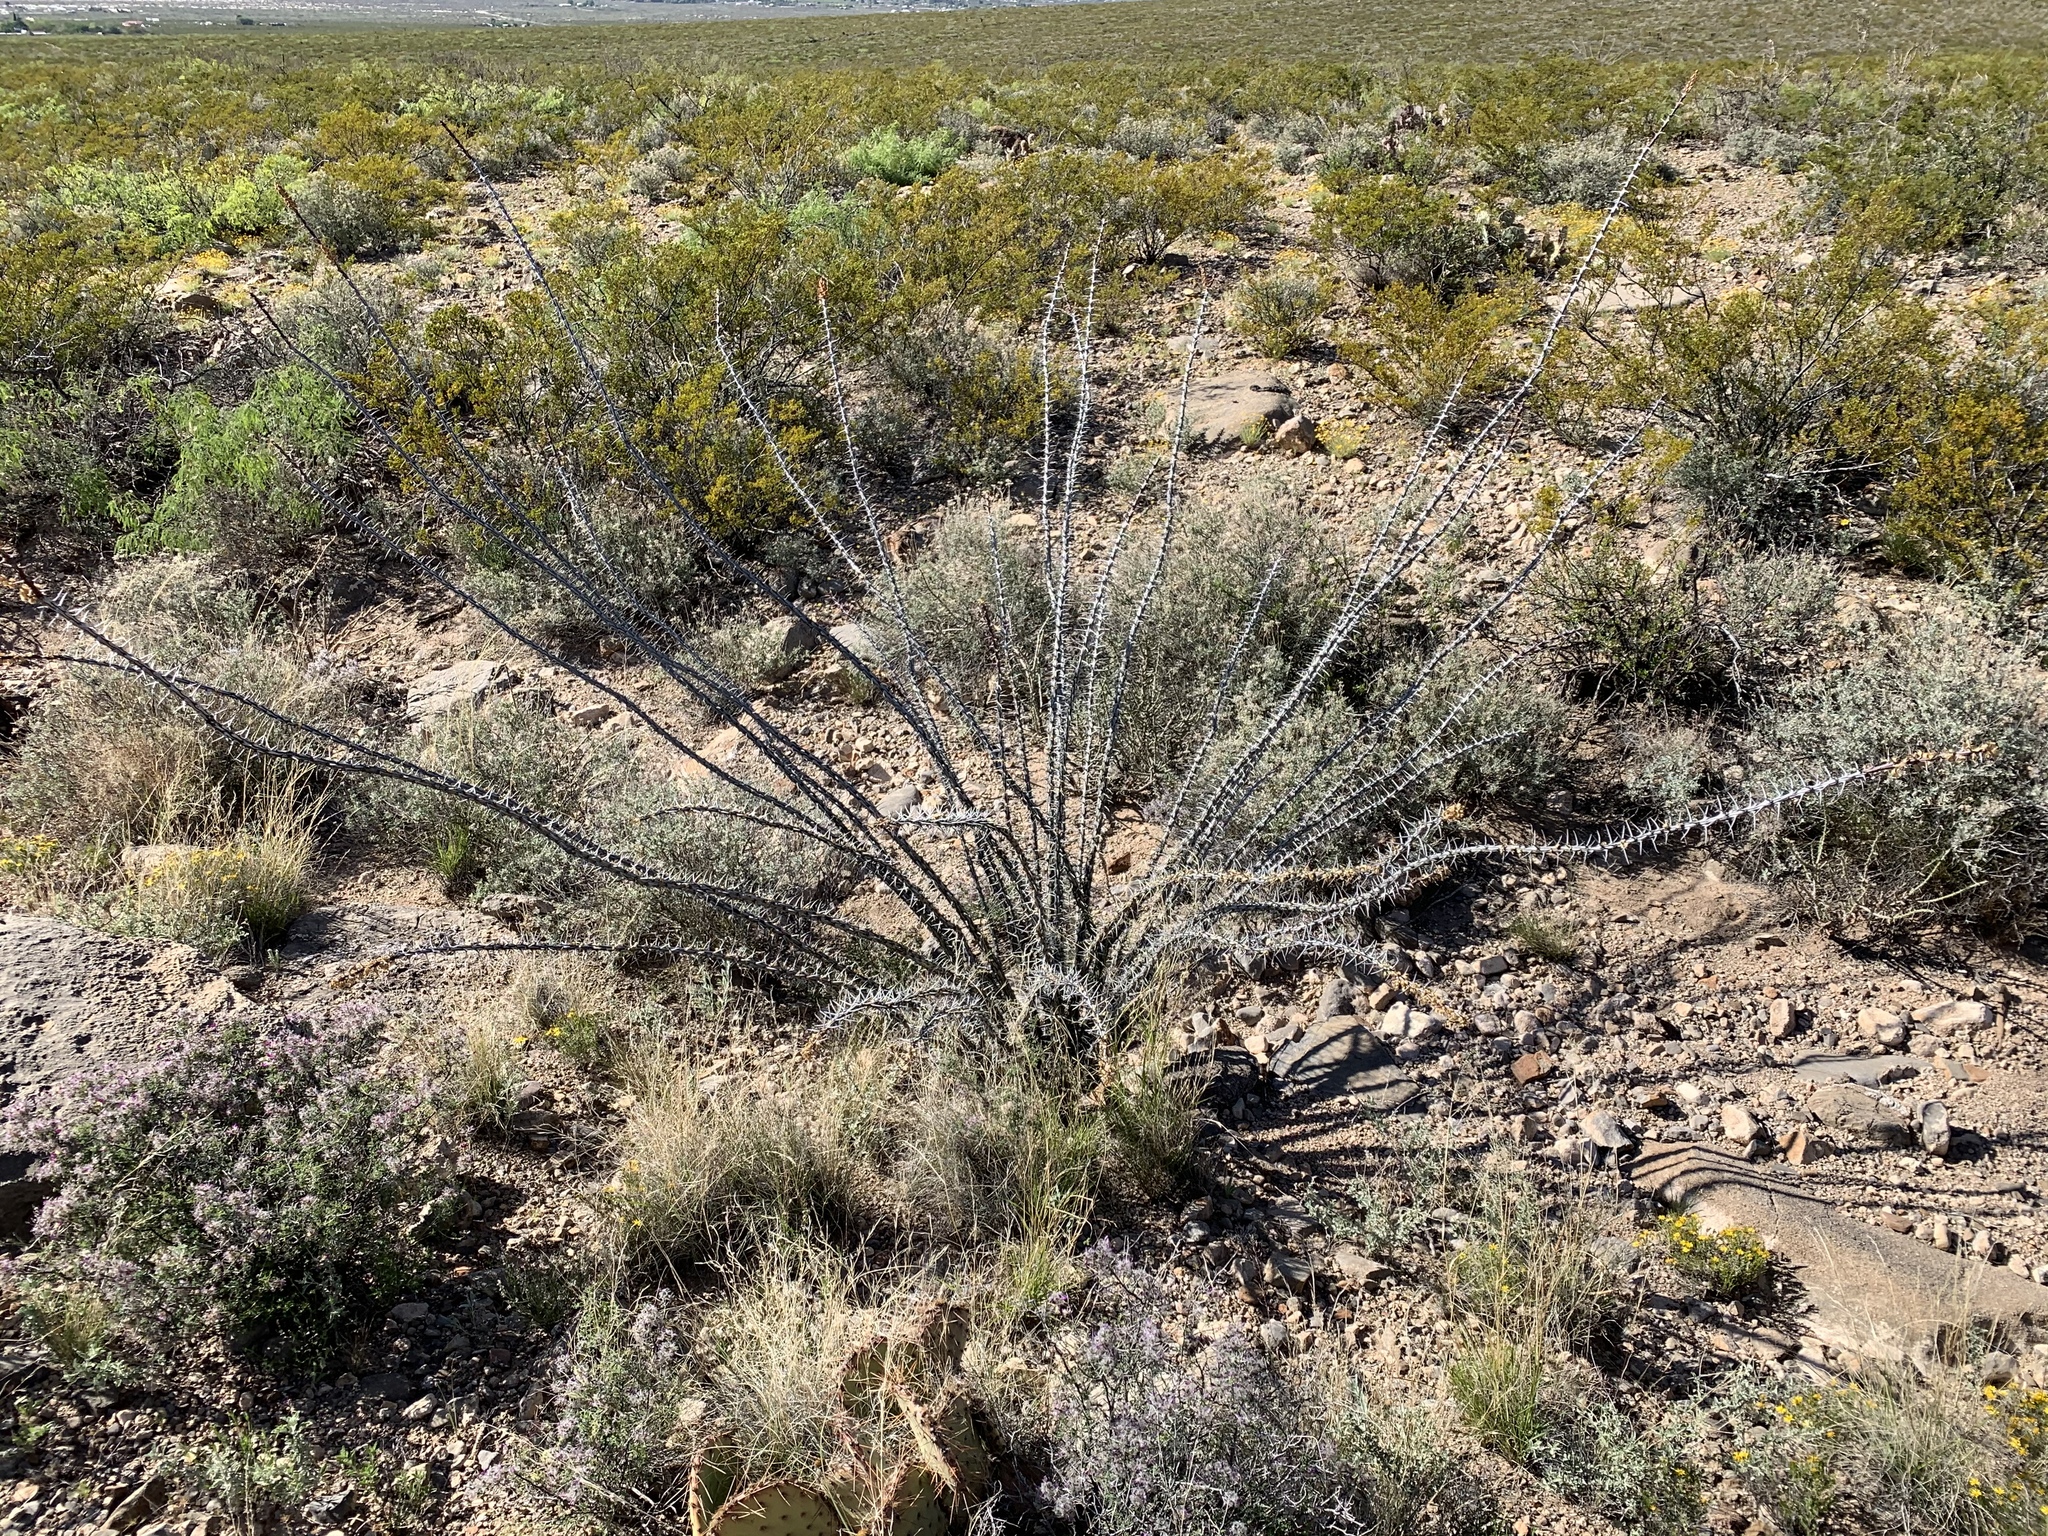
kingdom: Plantae
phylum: Tracheophyta
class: Magnoliopsida
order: Ericales
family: Fouquieriaceae
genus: Fouquieria
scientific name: Fouquieria splendens
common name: Vine-cactus
